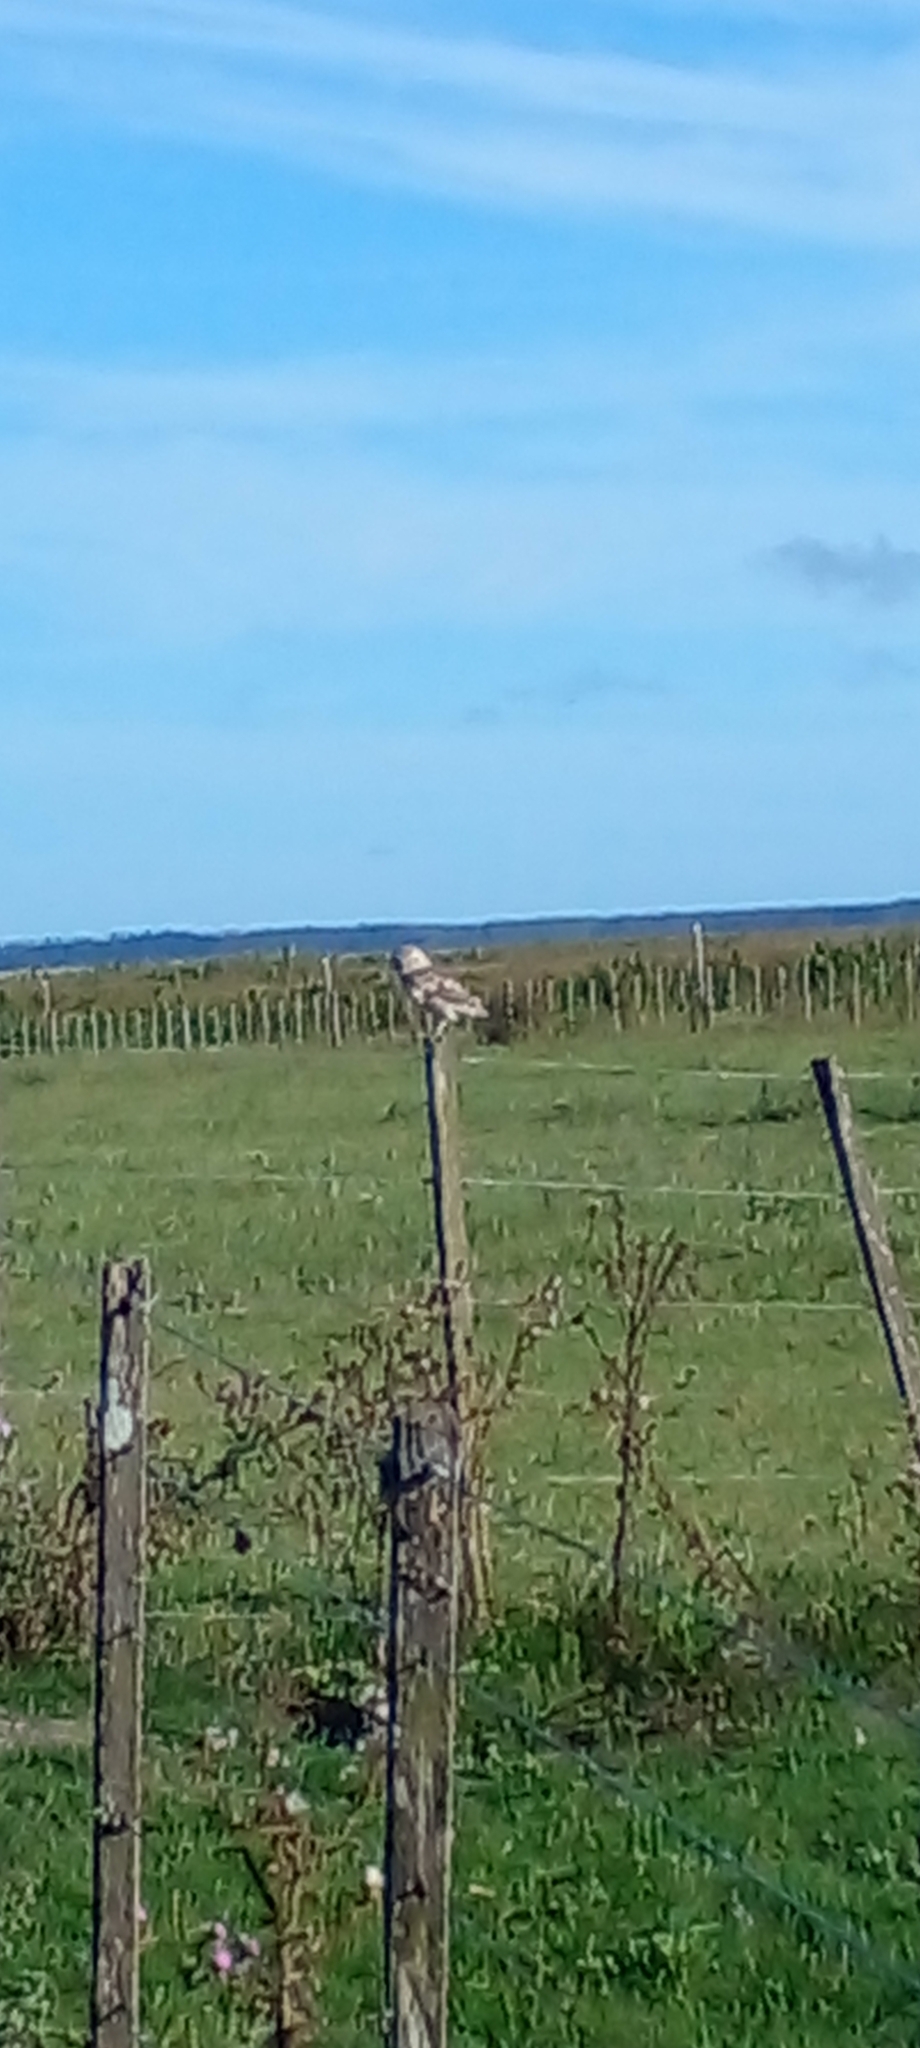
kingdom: Animalia
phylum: Chordata
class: Aves
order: Strigiformes
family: Strigidae
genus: Athene
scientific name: Athene cunicularia
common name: Burrowing owl
